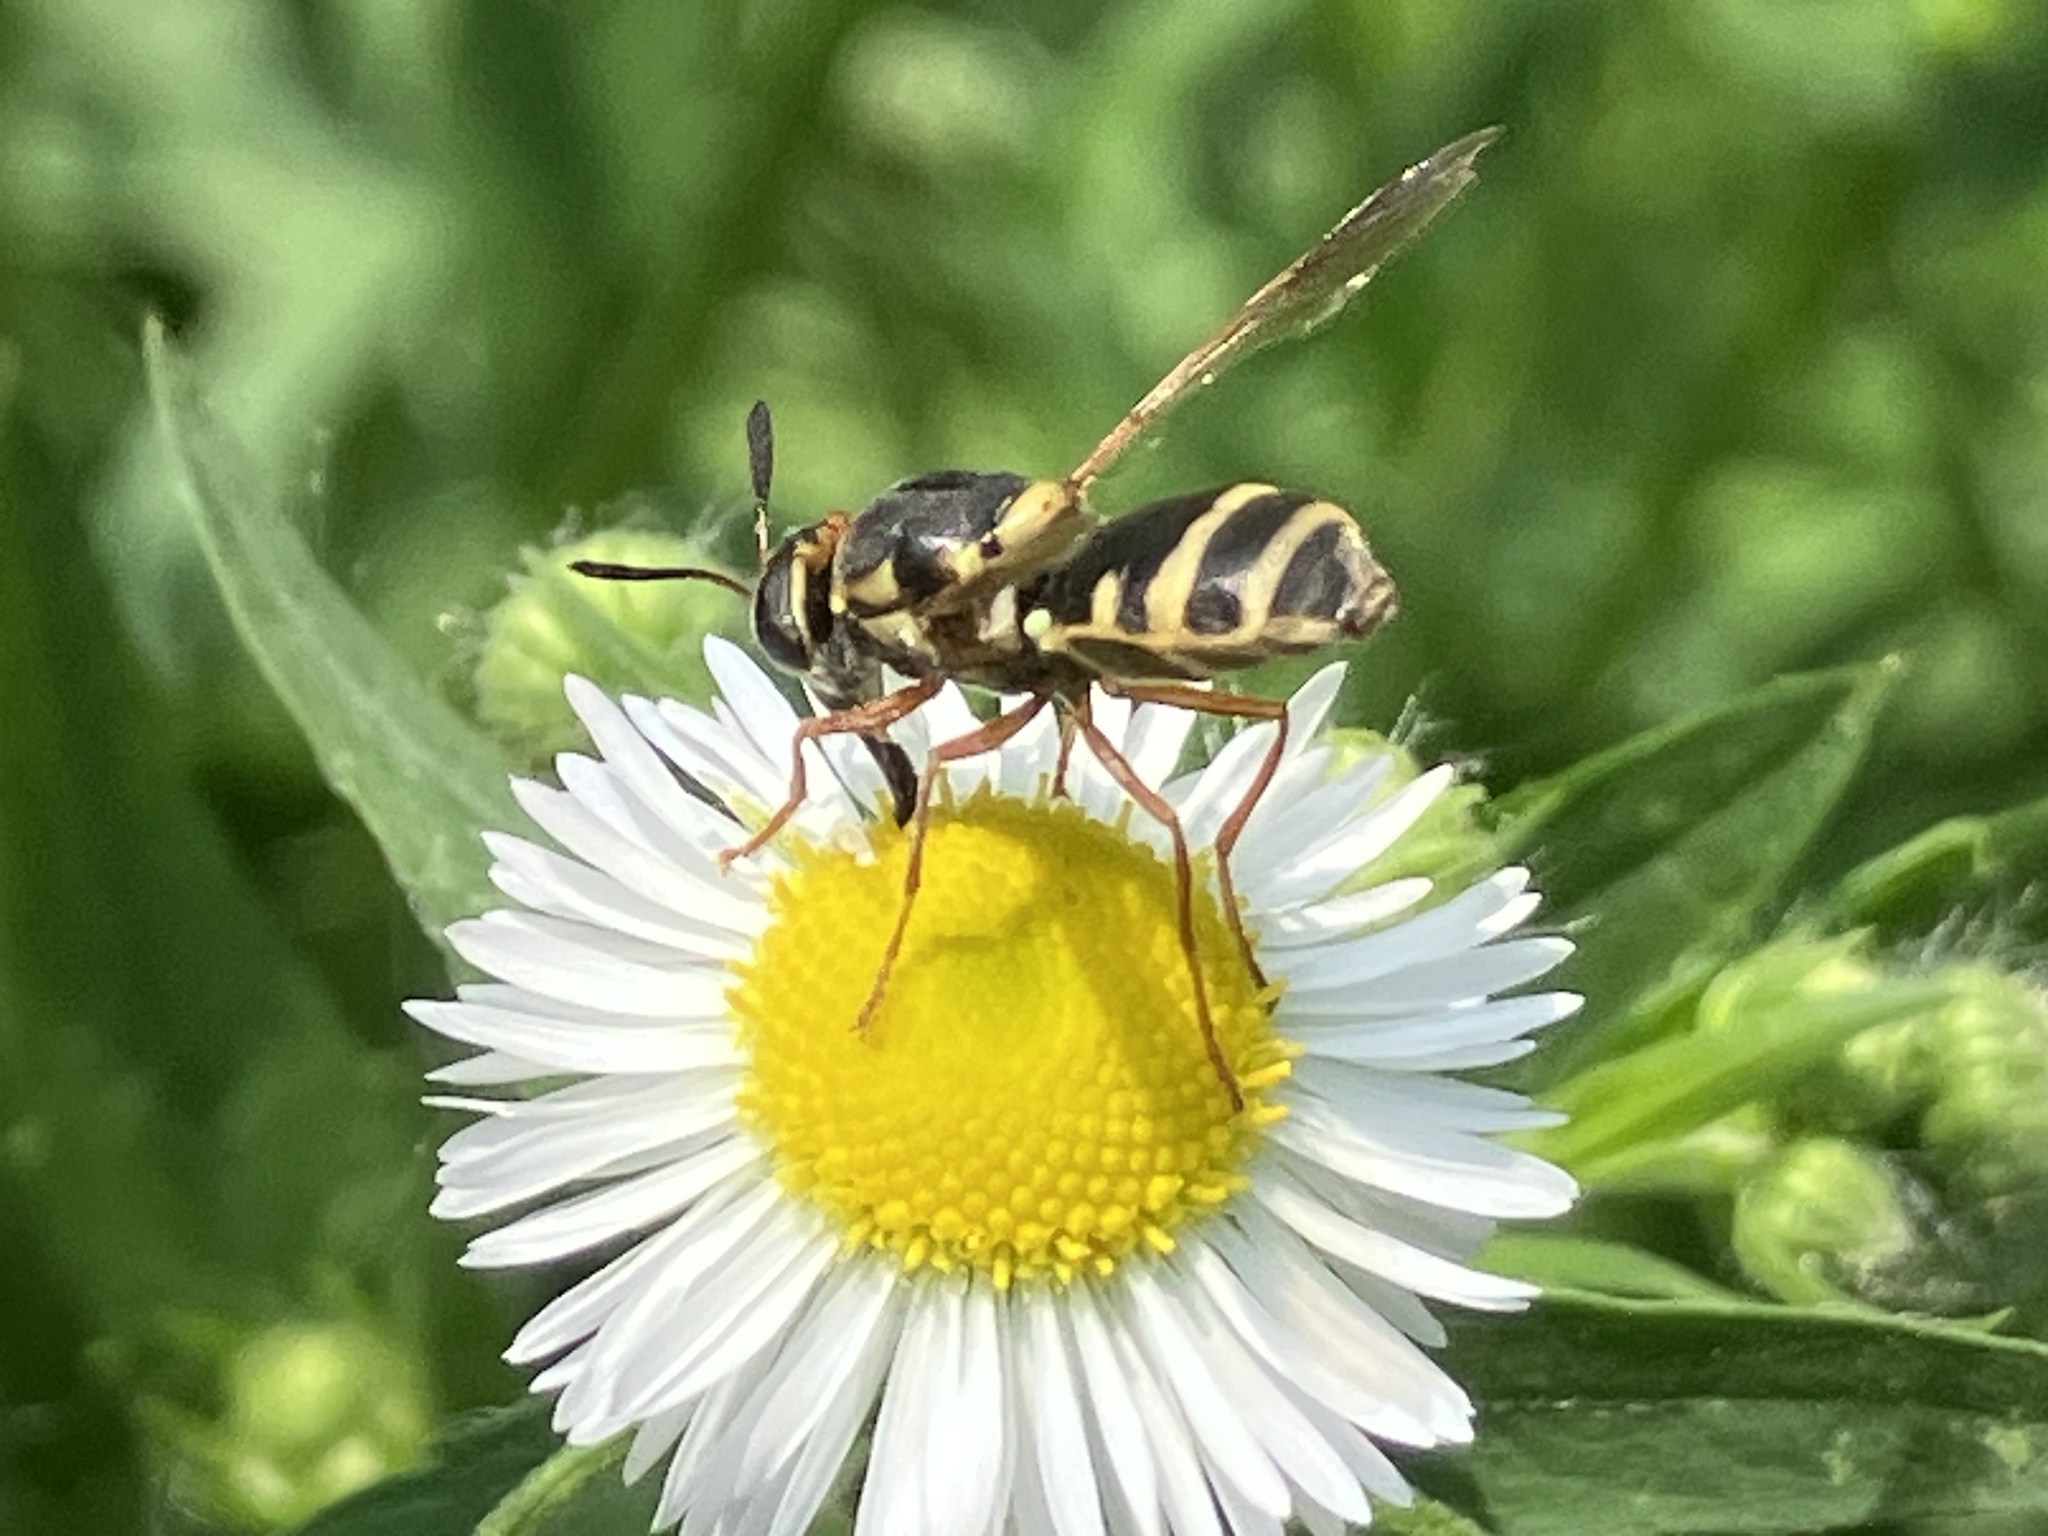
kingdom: Animalia
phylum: Arthropoda
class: Insecta
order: Diptera
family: Stratiomyidae
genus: Hoplitimyia
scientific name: Hoplitimyia constans
